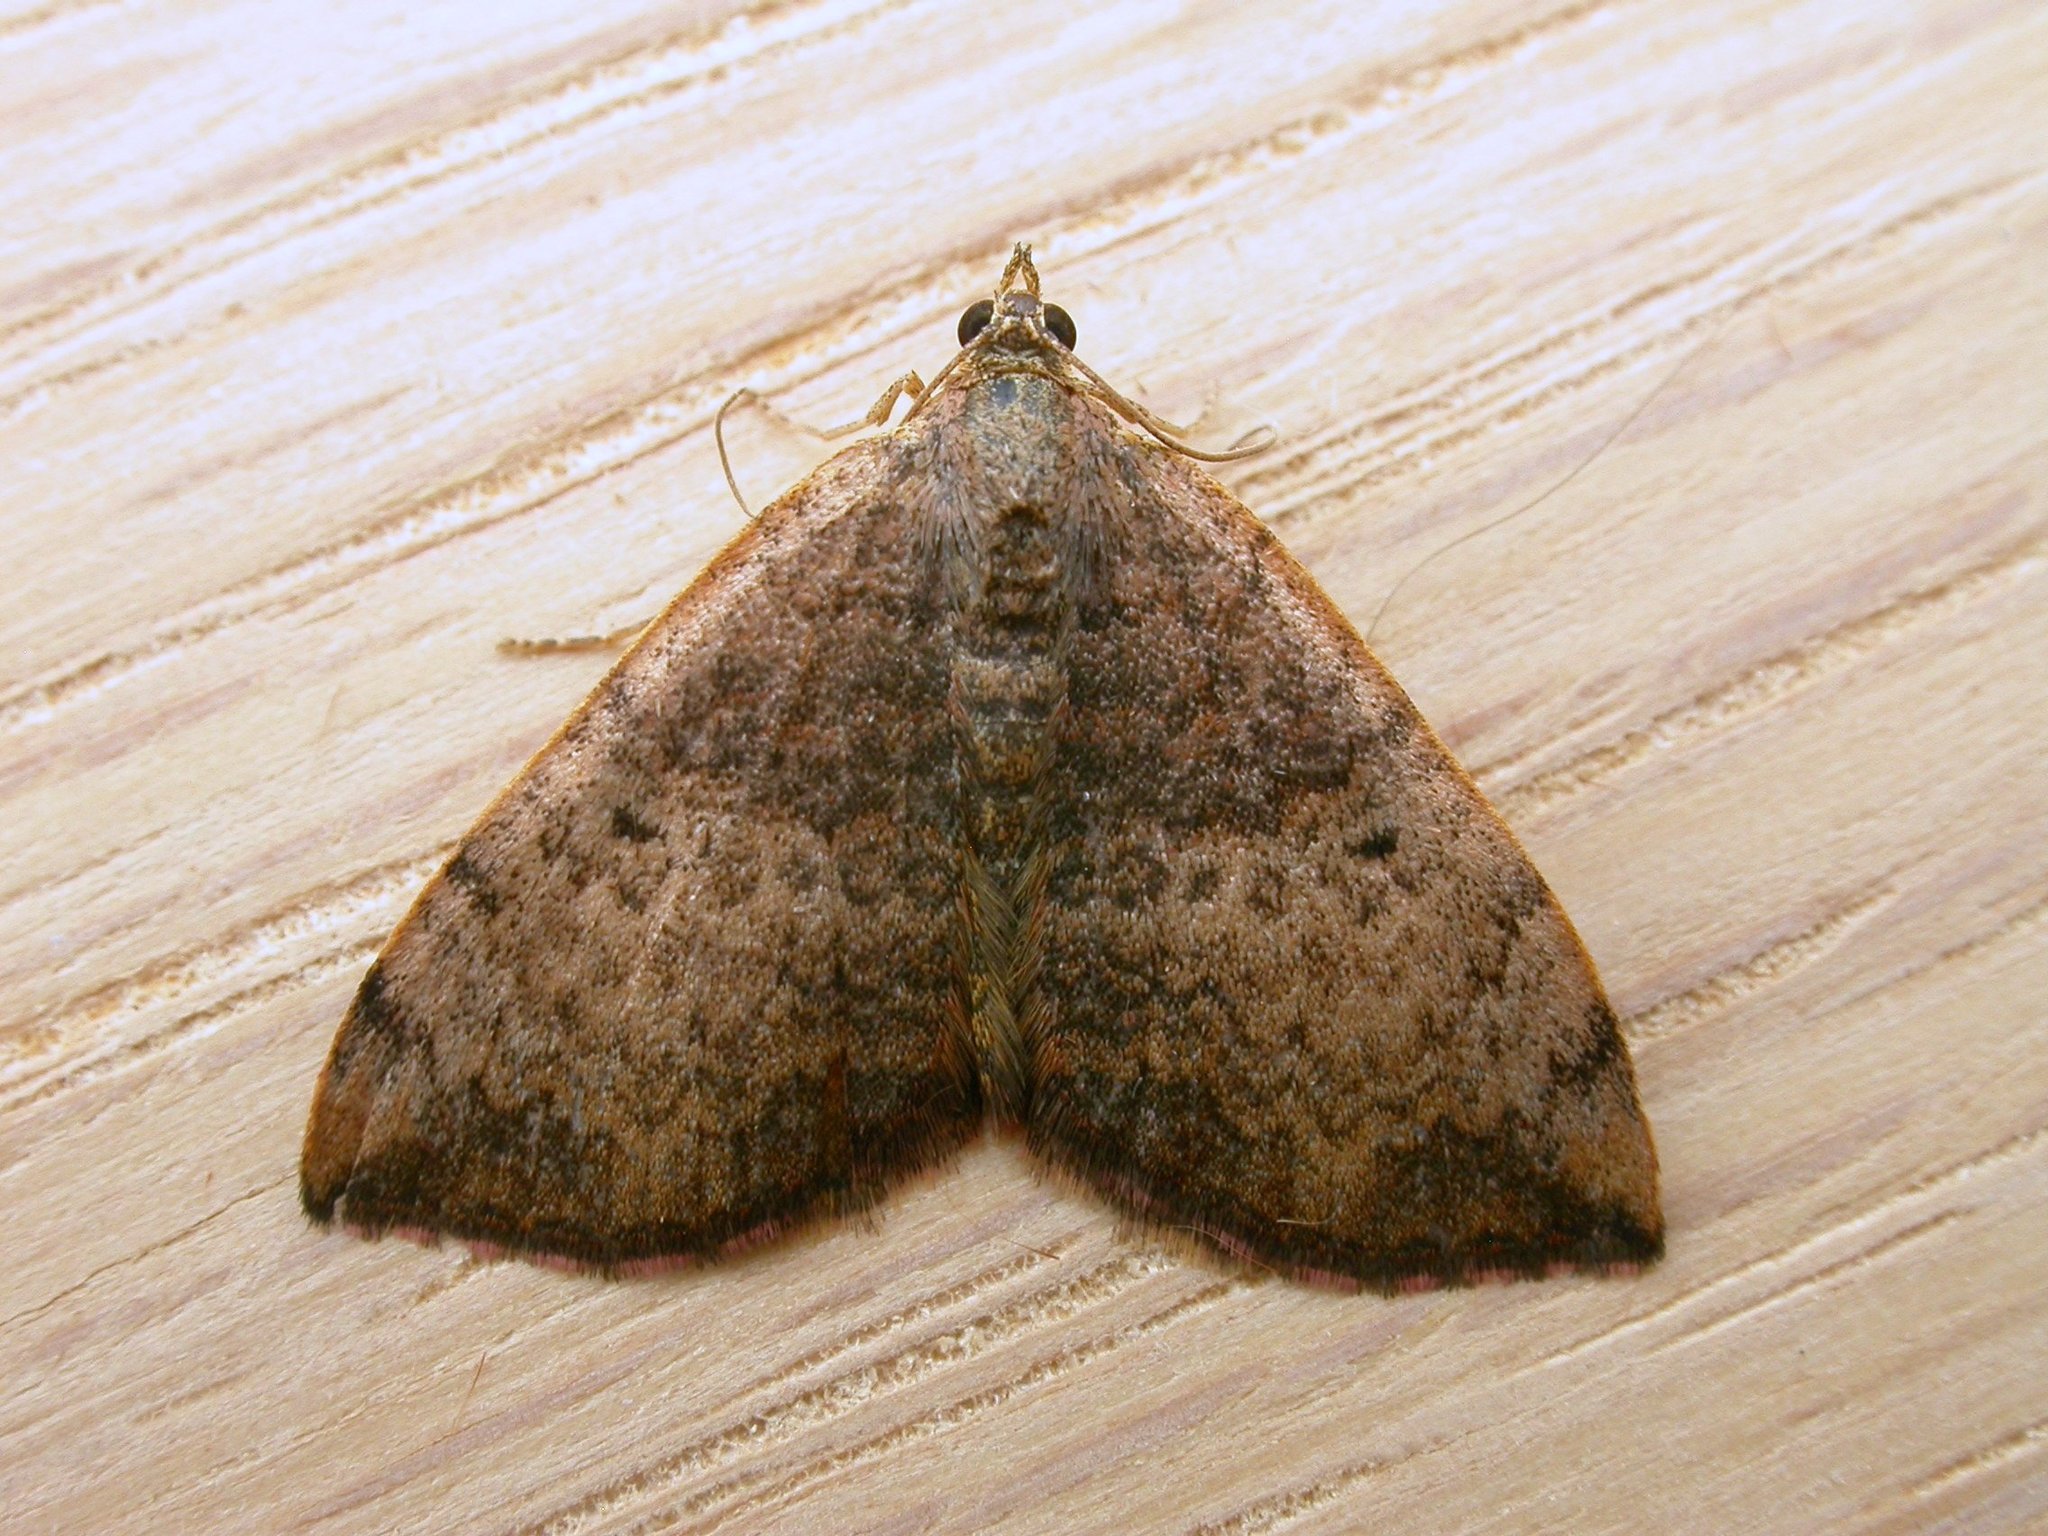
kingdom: Animalia
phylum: Arthropoda
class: Insecta
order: Lepidoptera
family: Geometridae
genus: Chrysolarentia
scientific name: Chrysolarentia mecynata
